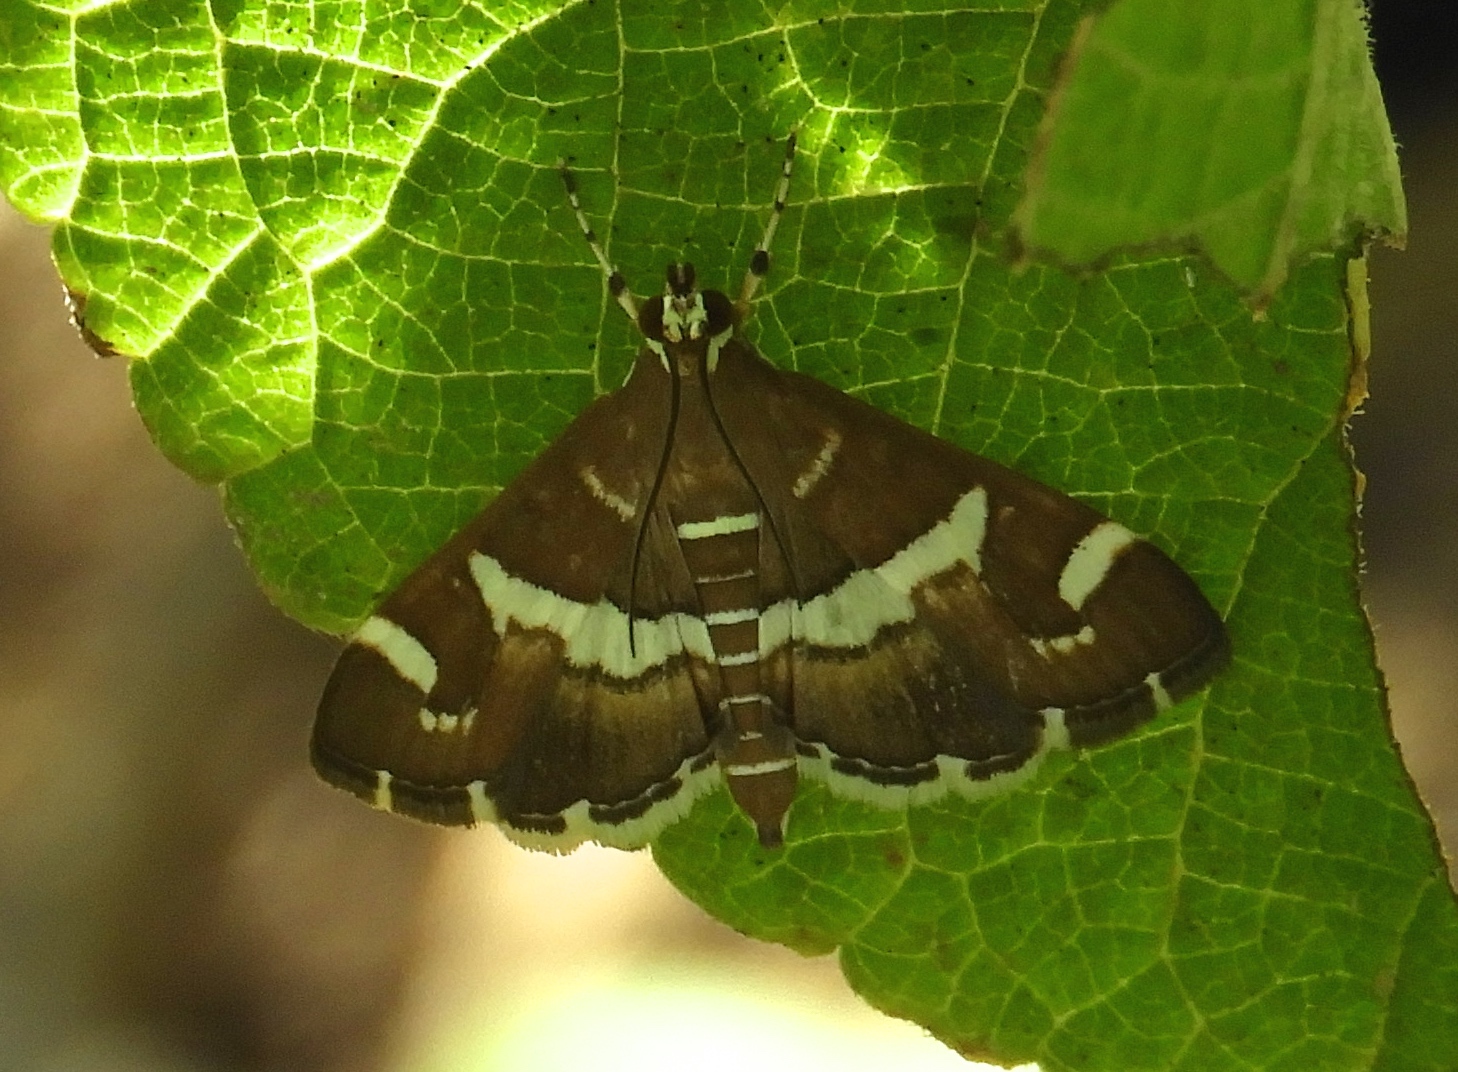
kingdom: Animalia
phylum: Arthropoda
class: Insecta
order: Lepidoptera
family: Crambidae
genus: Spoladea
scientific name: Spoladea recurvalis
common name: Beet webworm moth
